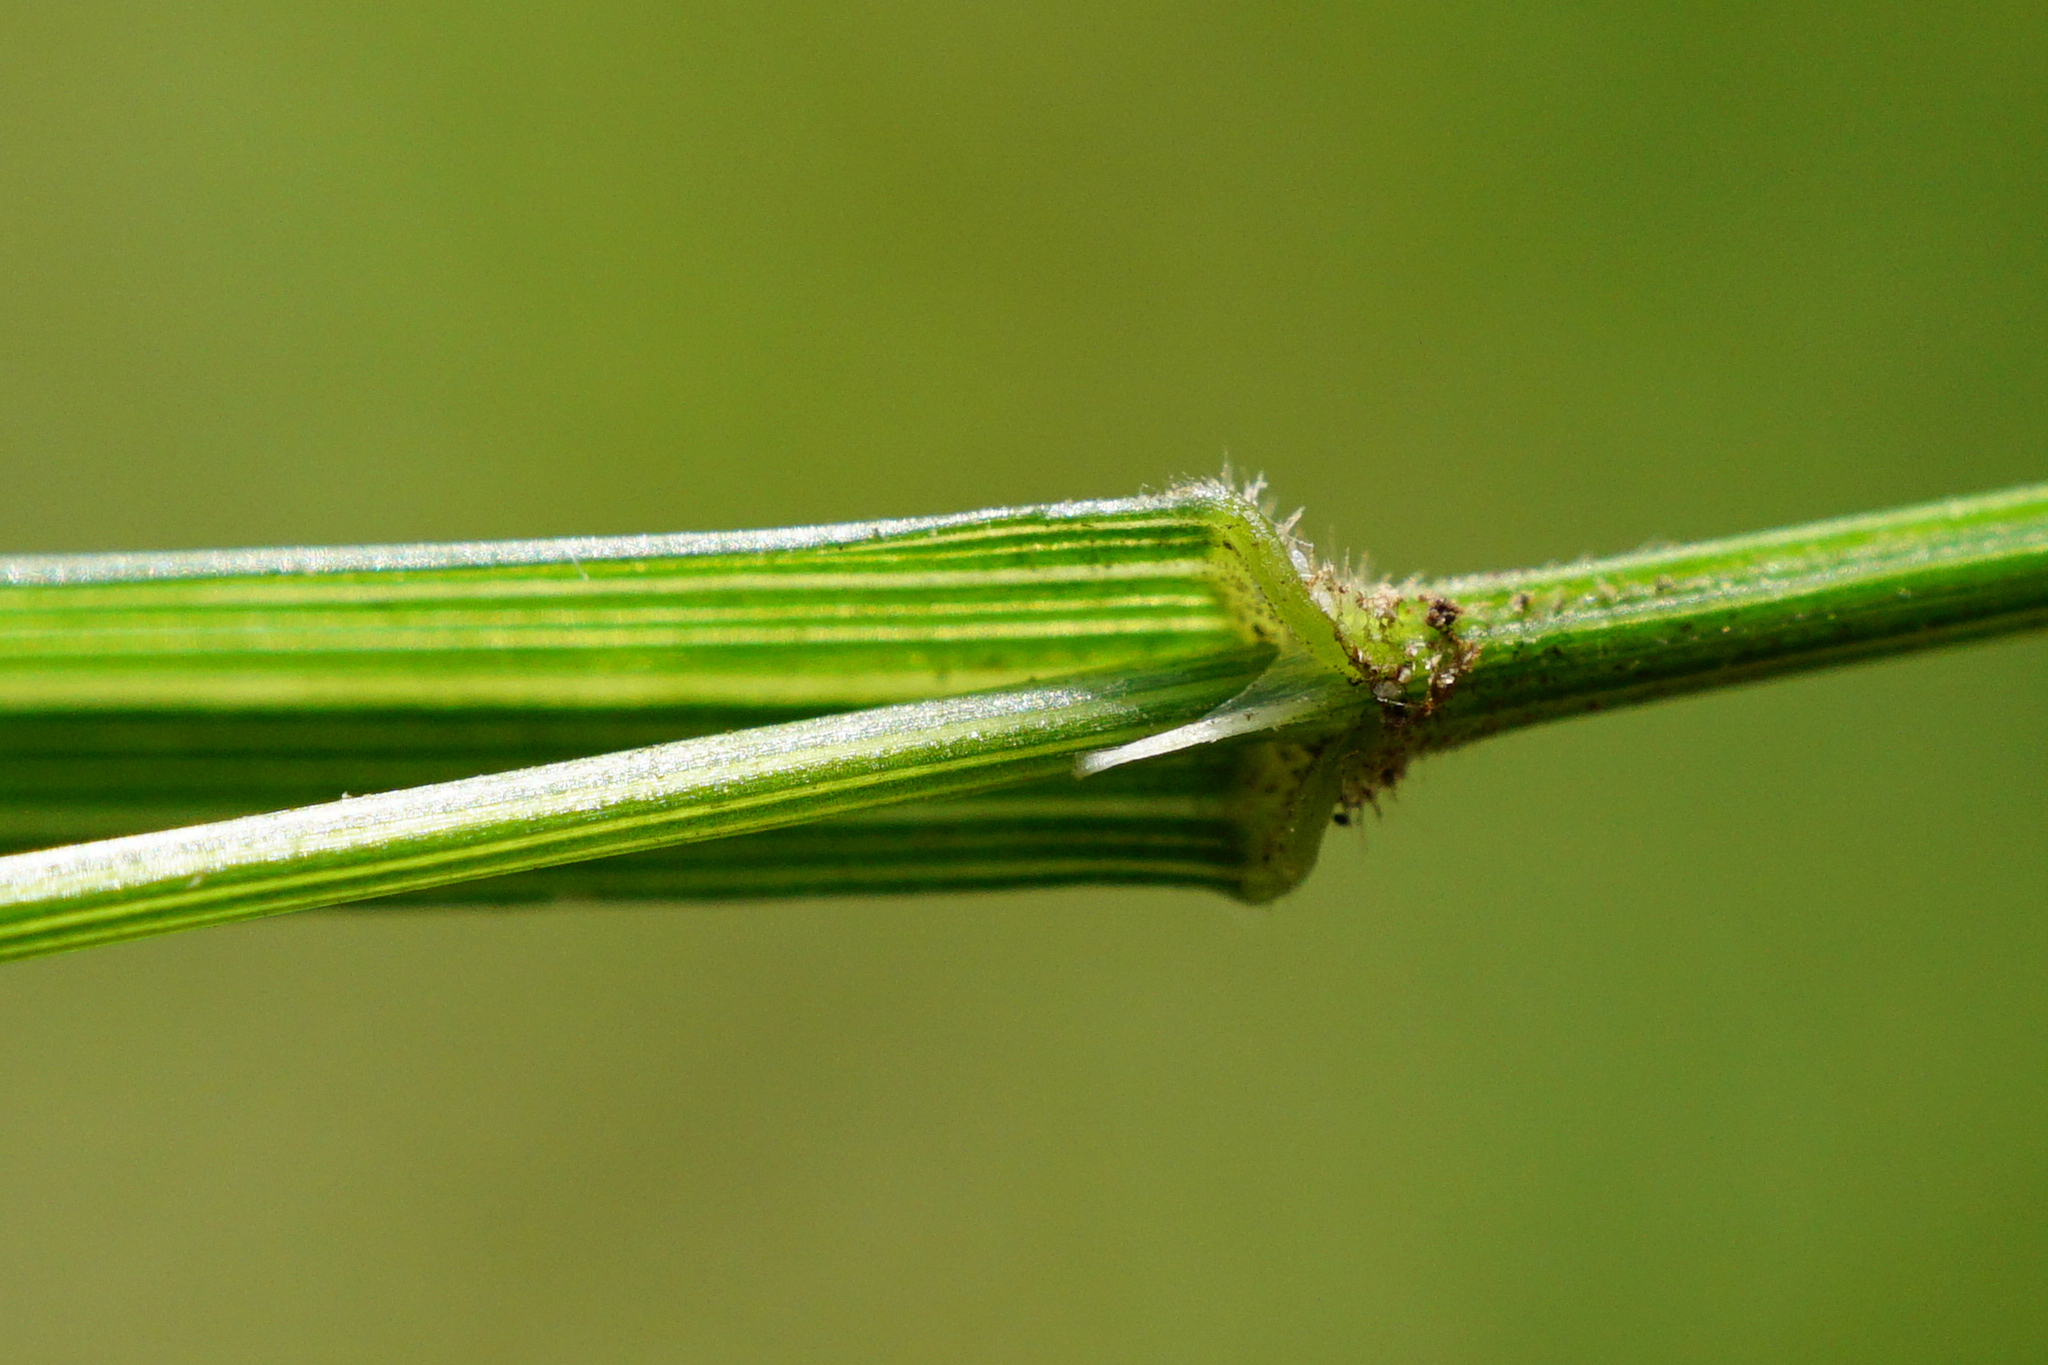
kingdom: Plantae
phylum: Tracheophyta
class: Liliopsida
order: Poales
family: Poaceae
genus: Melica
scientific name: Melica uniflora
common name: Wood melick
